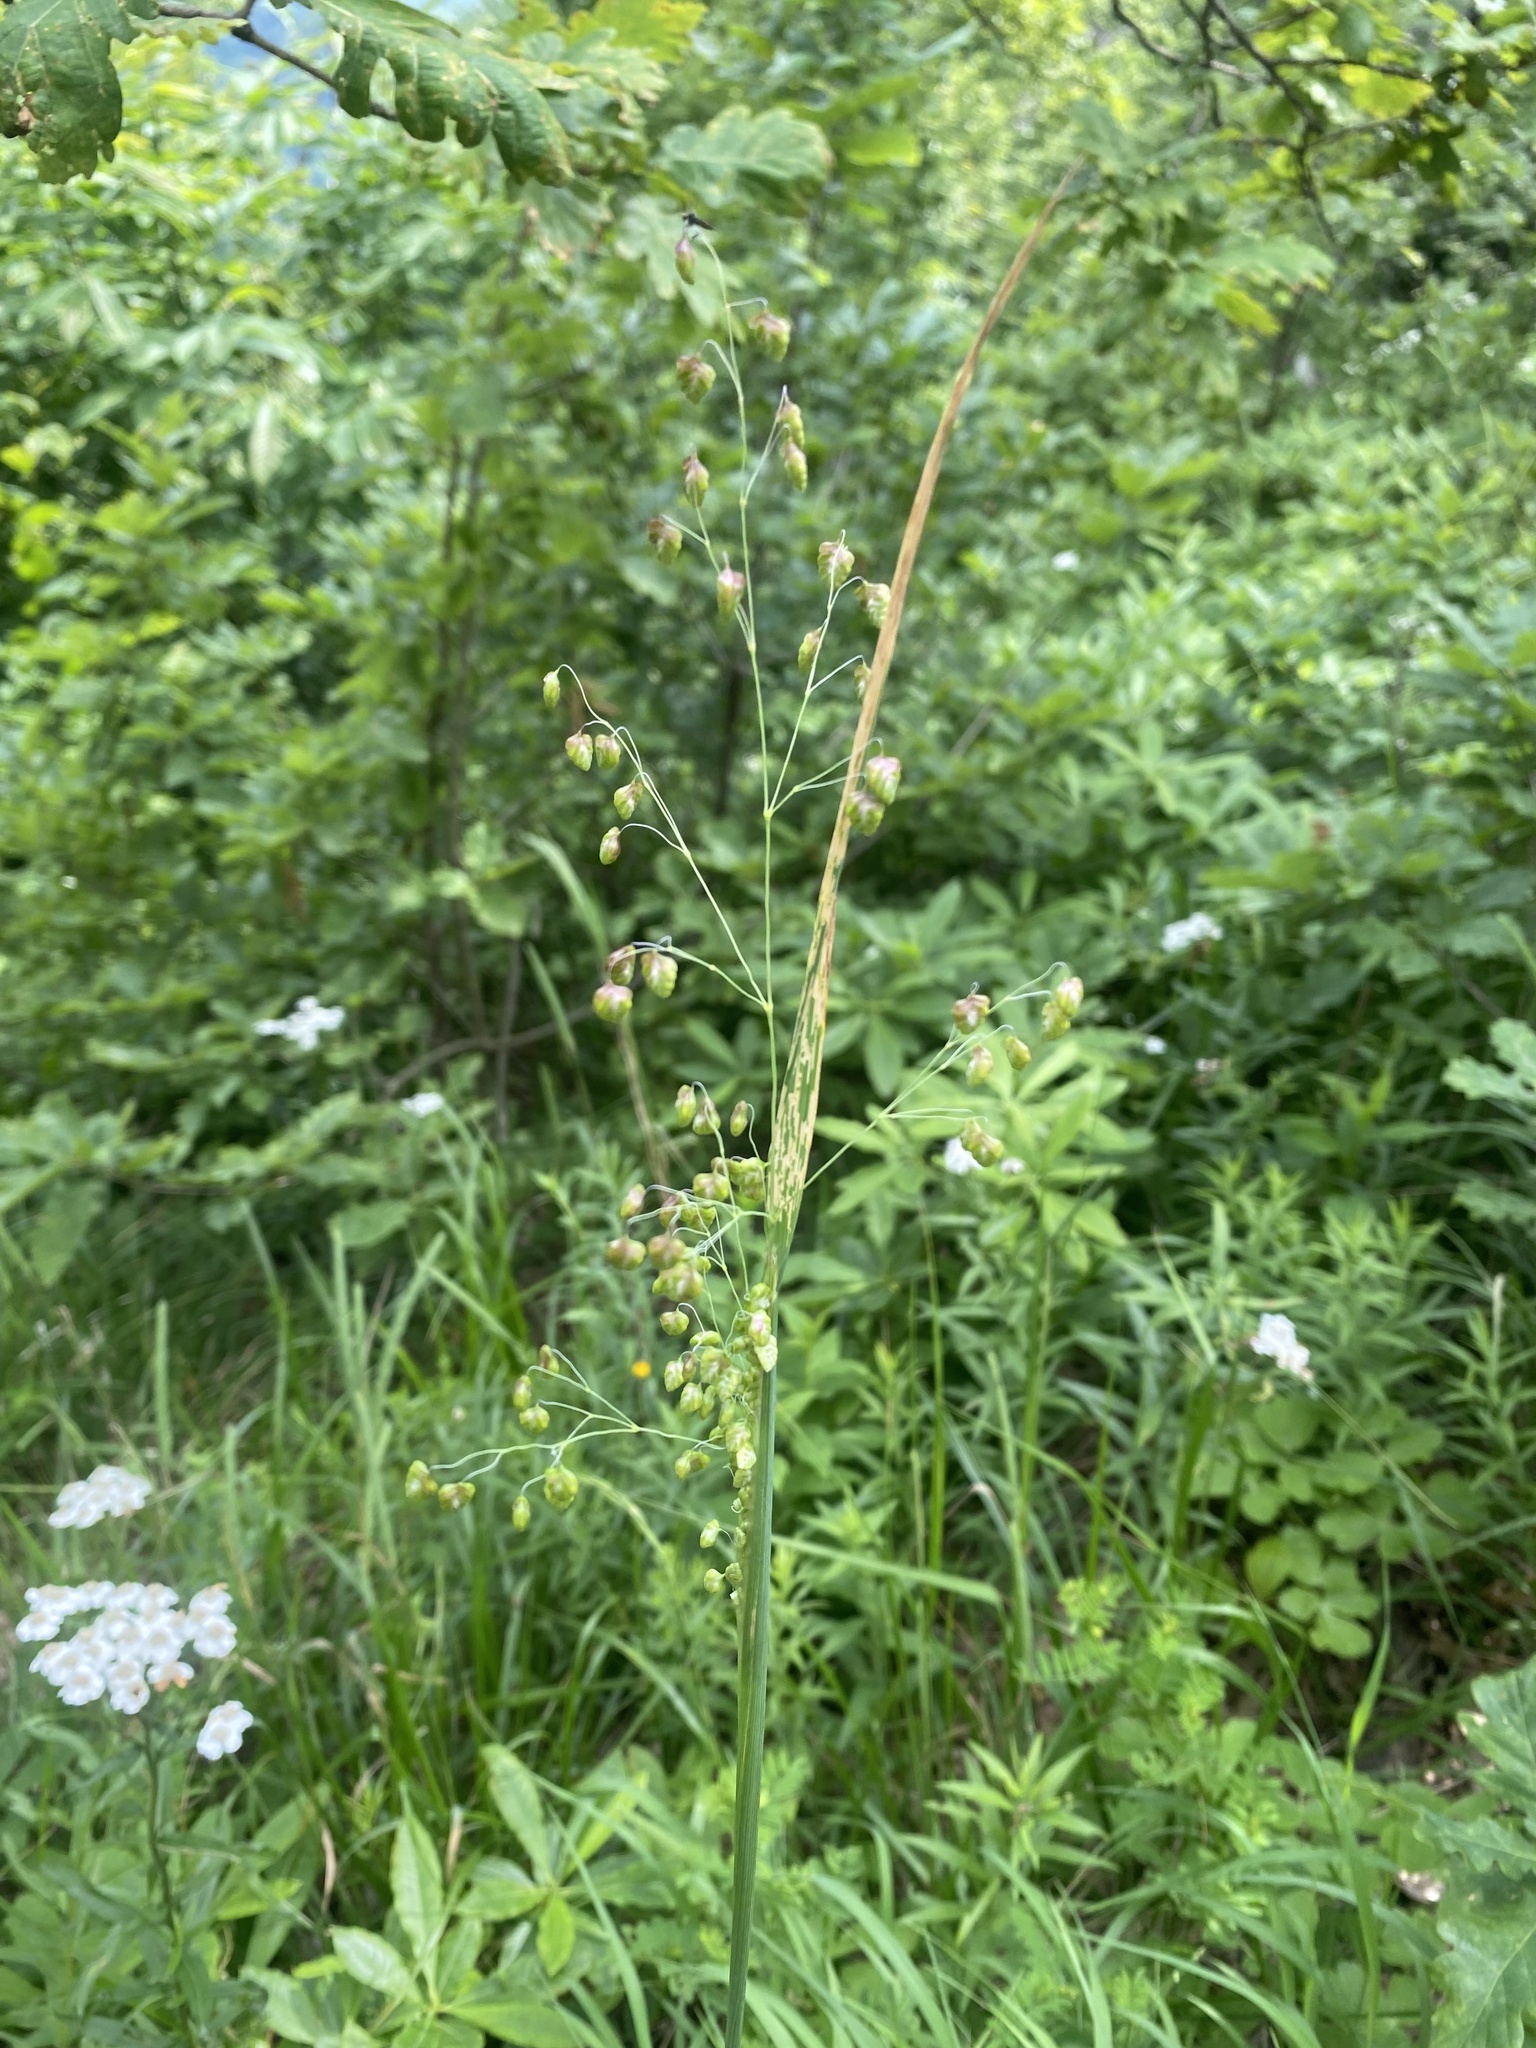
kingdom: Plantae
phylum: Tracheophyta
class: Liliopsida
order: Poales
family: Poaceae
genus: Briza
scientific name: Briza media
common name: Quaking grass
